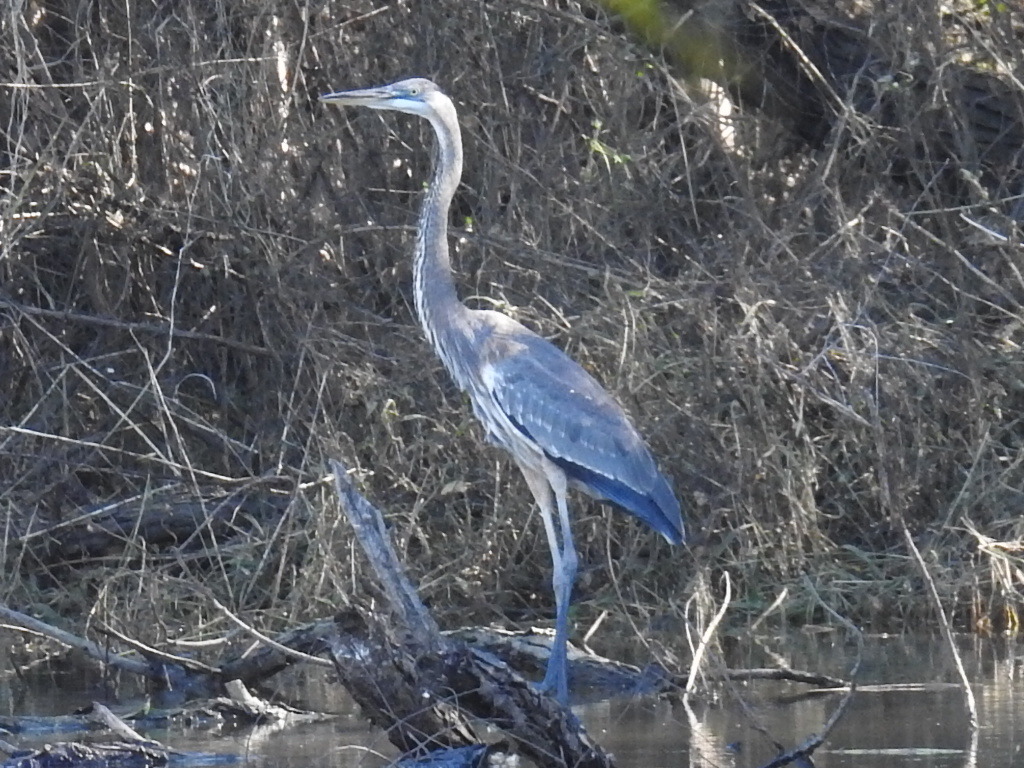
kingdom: Animalia
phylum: Chordata
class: Aves
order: Pelecaniformes
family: Ardeidae
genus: Ardea
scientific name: Ardea herodias
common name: Great blue heron
